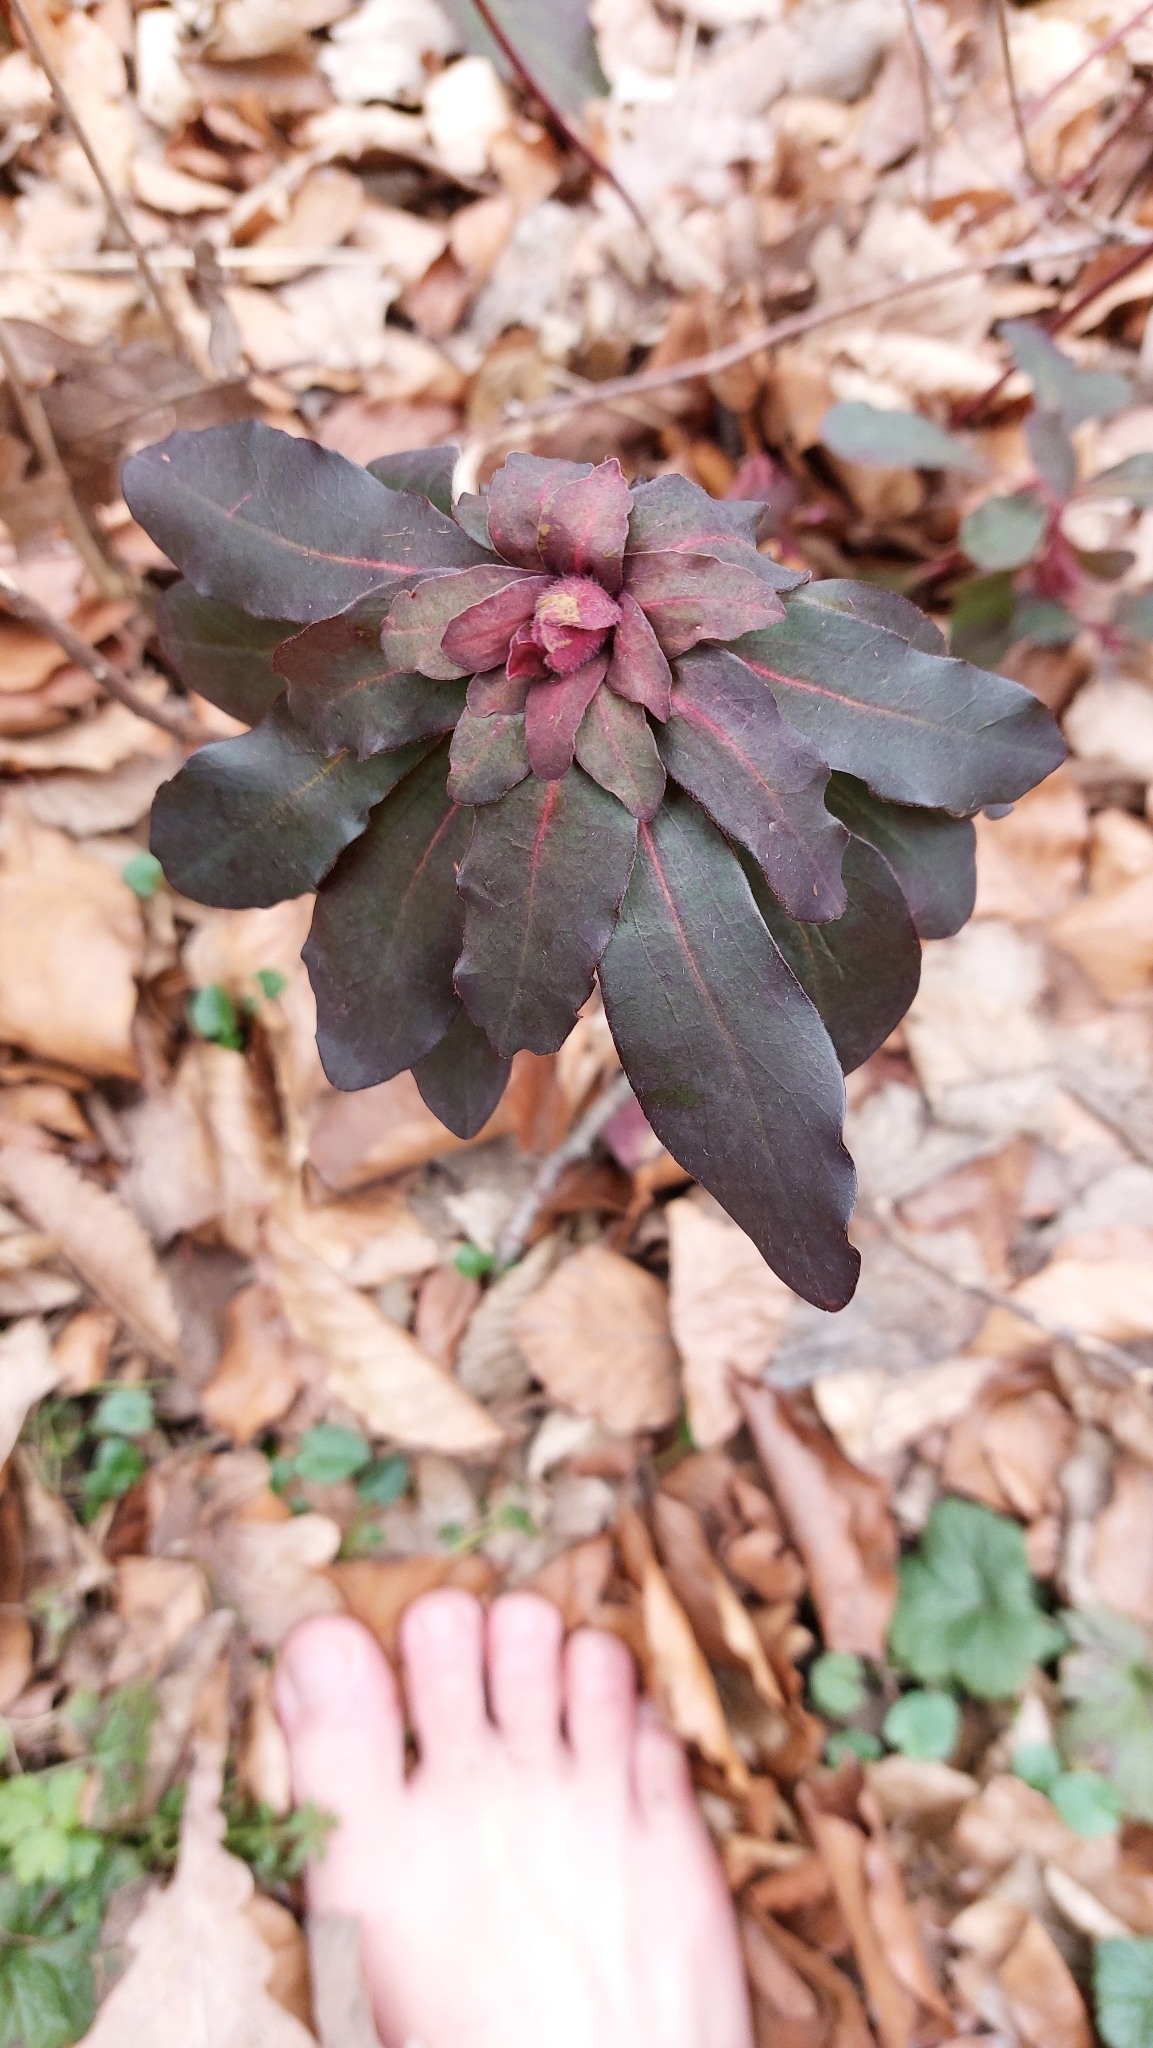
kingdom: Plantae
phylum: Tracheophyta
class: Magnoliopsida
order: Malpighiales
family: Euphorbiaceae
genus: Euphorbia
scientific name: Euphorbia amygdaloides
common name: Wood spurge
